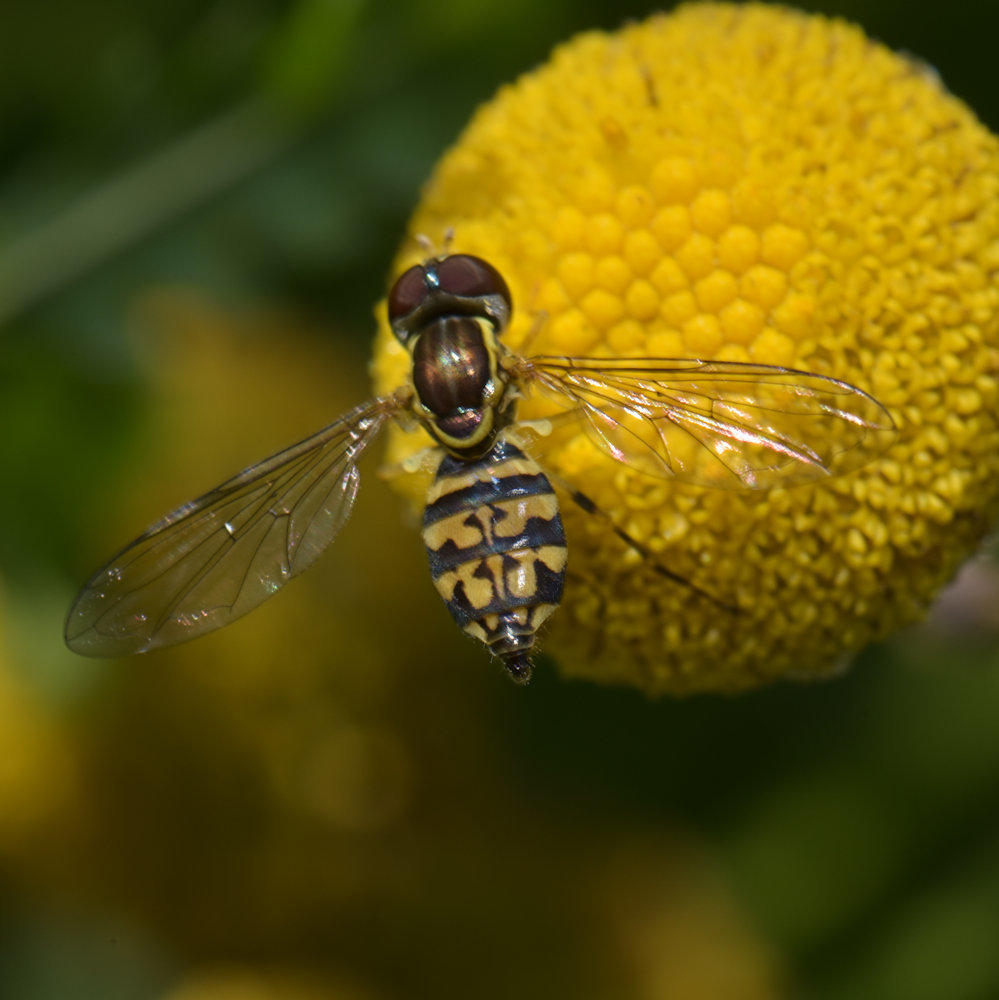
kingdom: Animalia
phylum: Arthropoda
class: Insecta
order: Diptera
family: Syrphidae
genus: Toxomerus
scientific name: Toxomerus geminatus
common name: Eastern calligrapher
